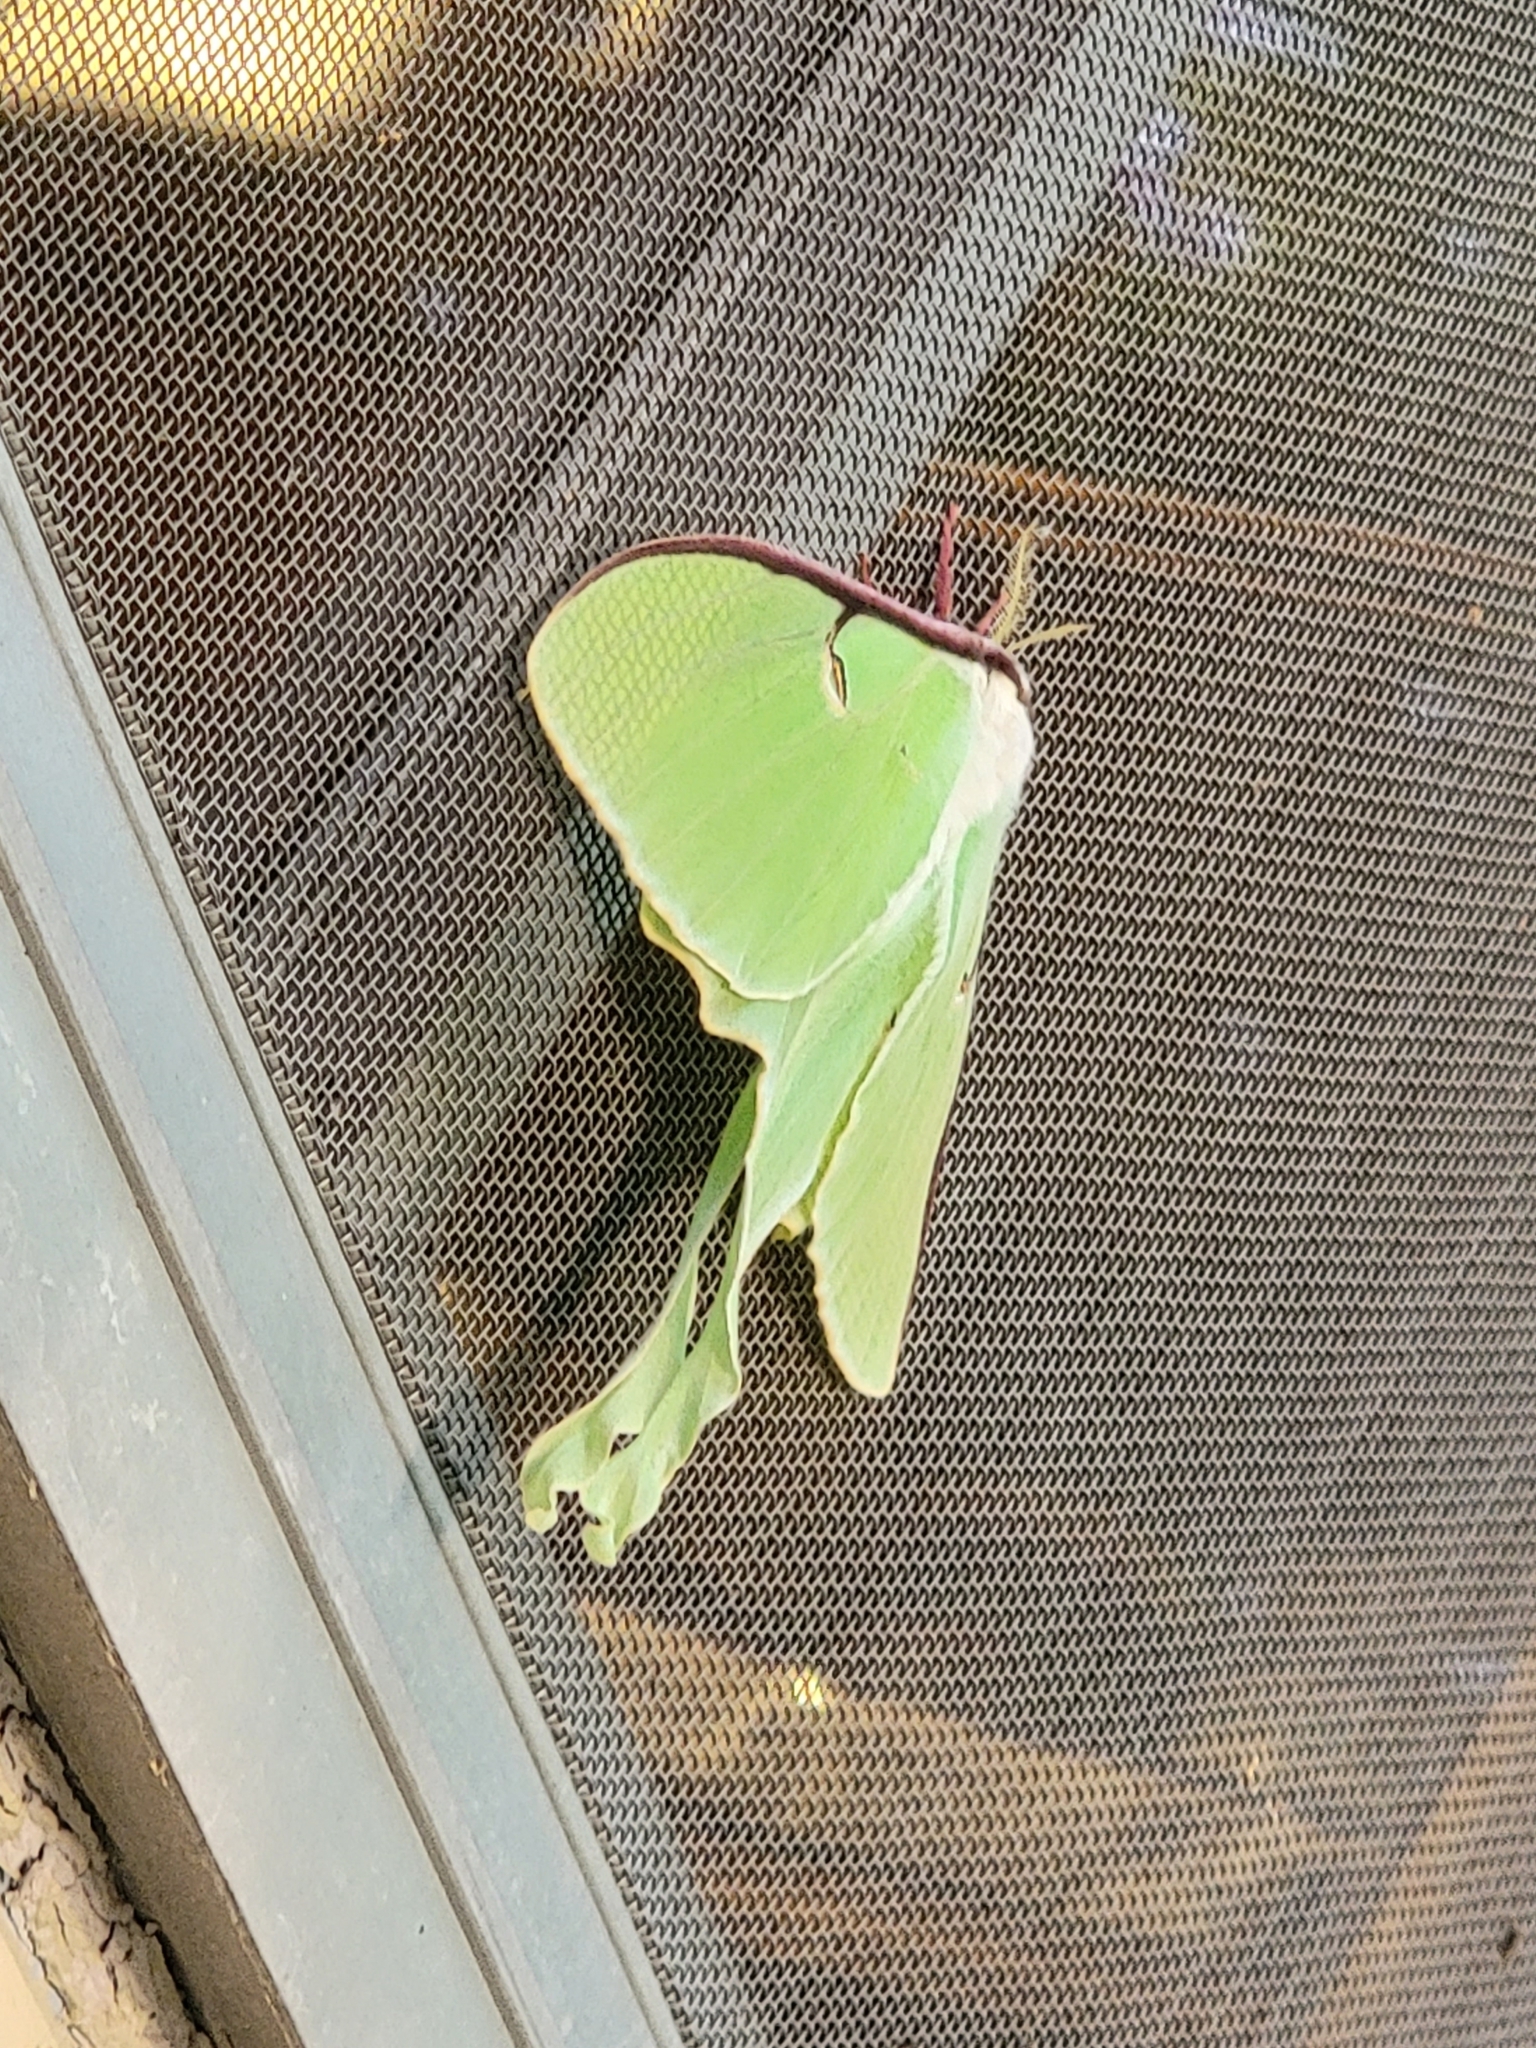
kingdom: Animalia
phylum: Arthropoda
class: Insecta
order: Lepidoptera
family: Saturniidae
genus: Actias
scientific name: Actias luna
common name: Luna moth
